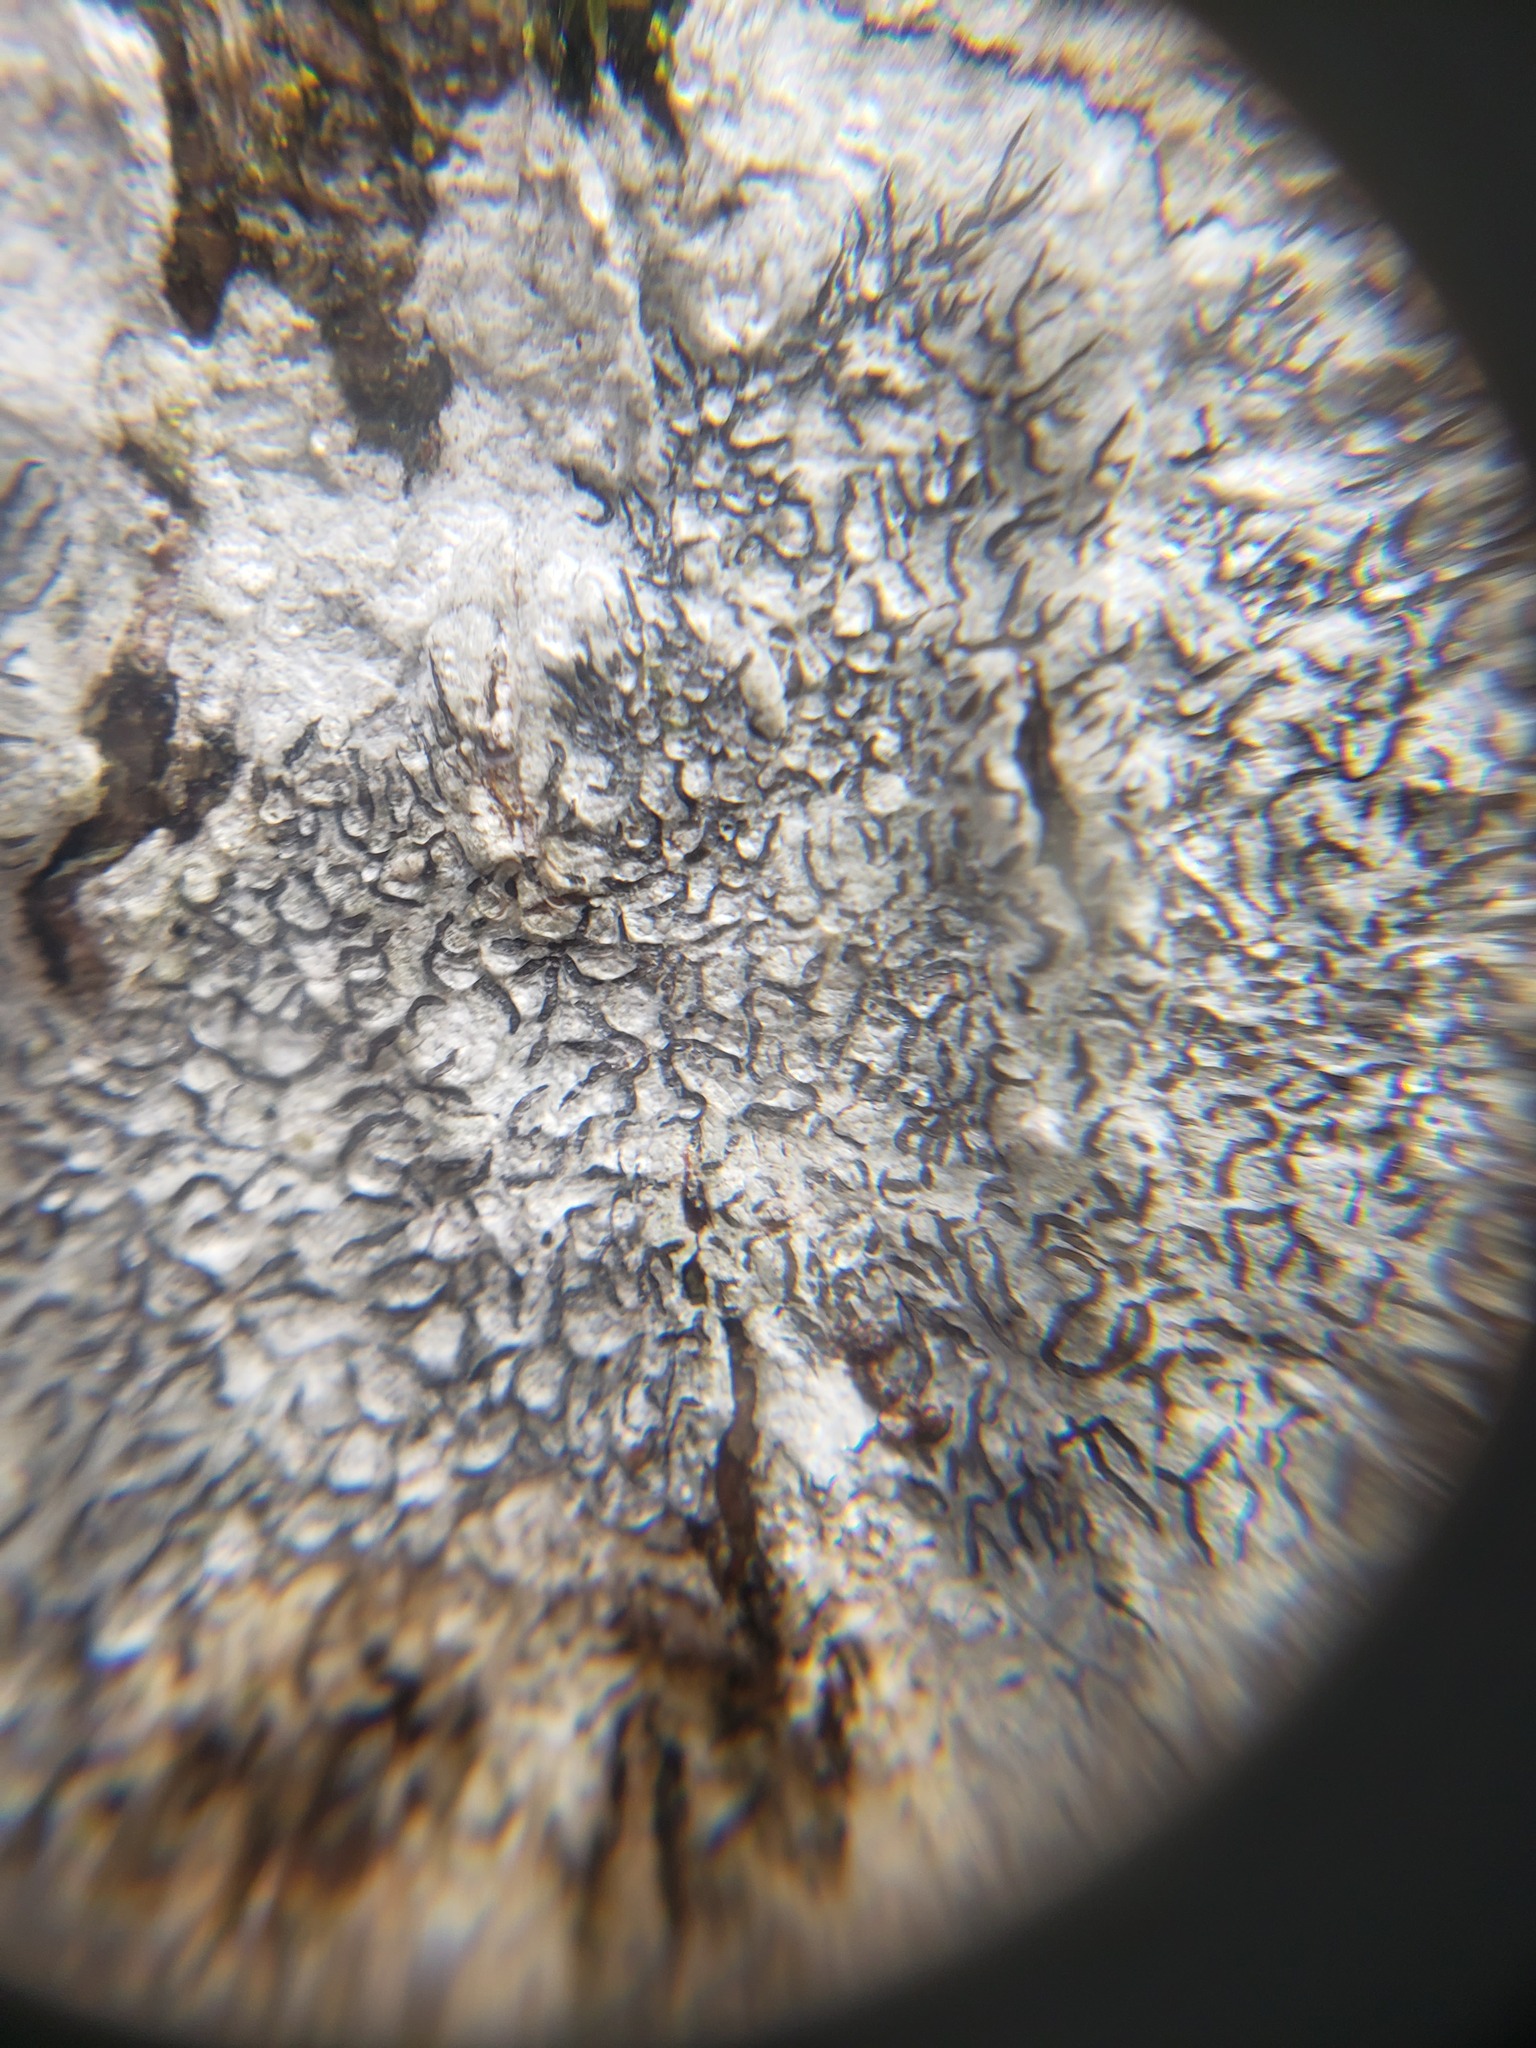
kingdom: Fungi
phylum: Ascomycota
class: Lecanoromycetes
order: Ostropales
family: Graphidaceae
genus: Graphis
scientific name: Graphis scripta
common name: Script lichen
